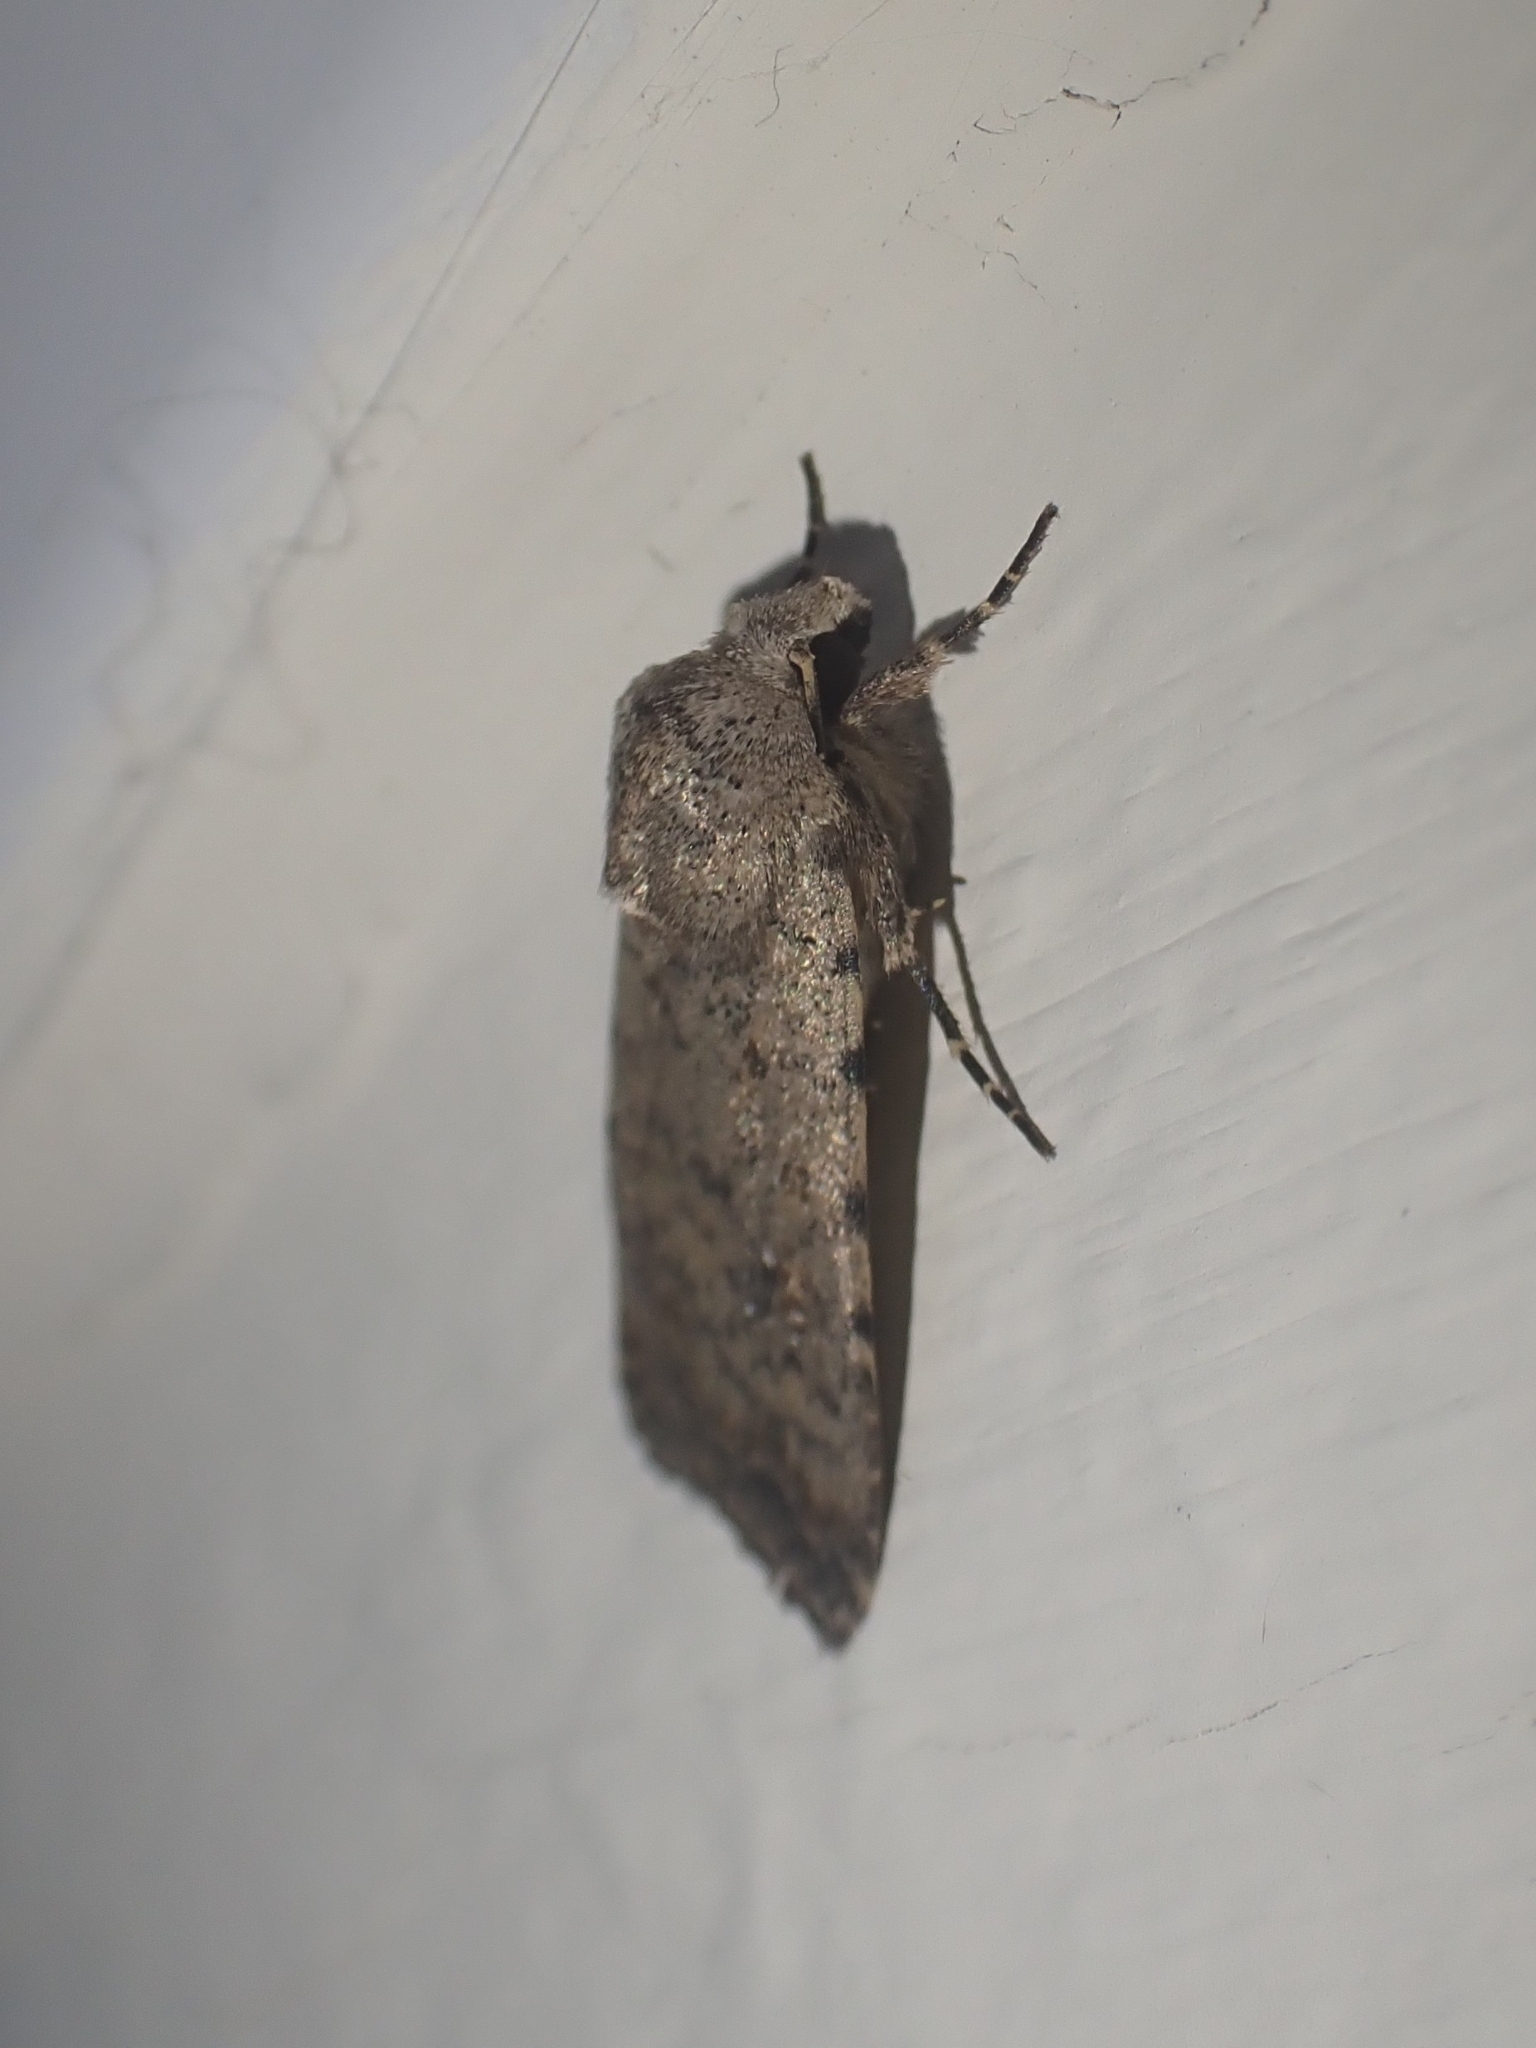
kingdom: Animalia
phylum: Arthropoda
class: Insecta
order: Lepidoptera
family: Noctuidae
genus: Caradrina
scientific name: Caradrina clavipalpis
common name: Pale mottled willow
